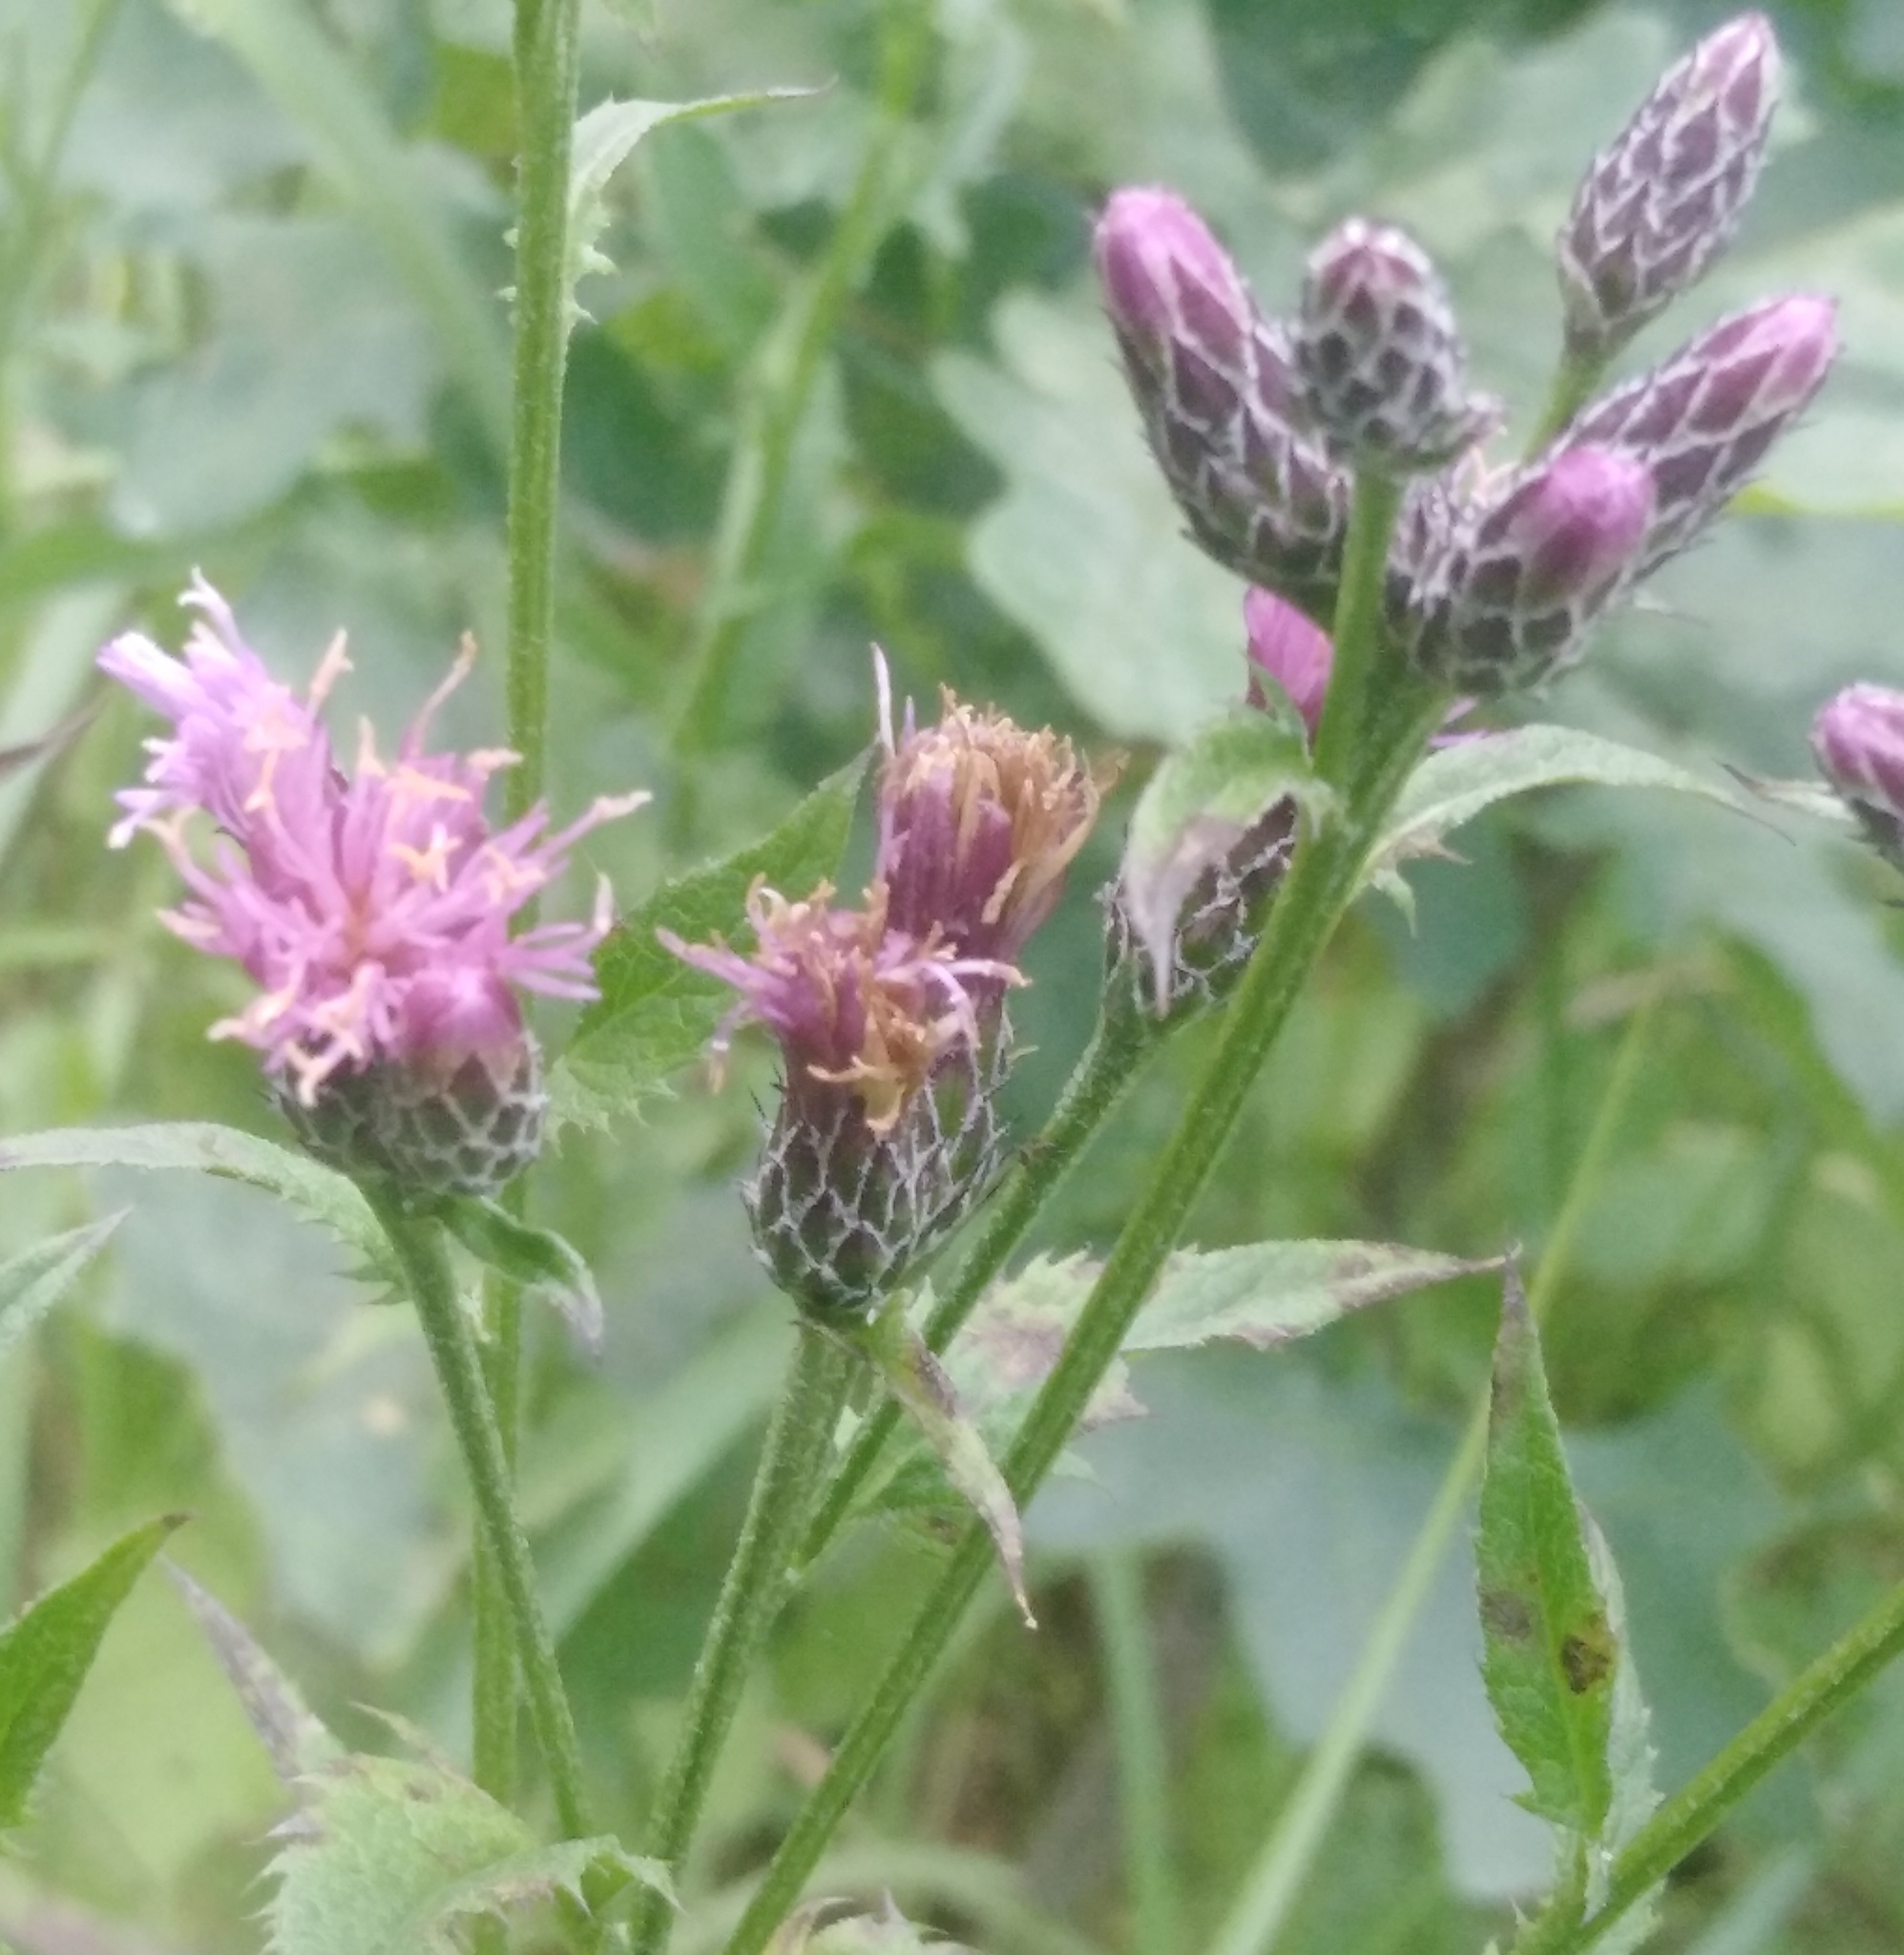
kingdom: Plantae
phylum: Tracheophyta
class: Magnoliopsida
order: Asterales
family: Asteraceae
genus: Serratula
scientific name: Serratula tinctoria
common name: Saw-wort
